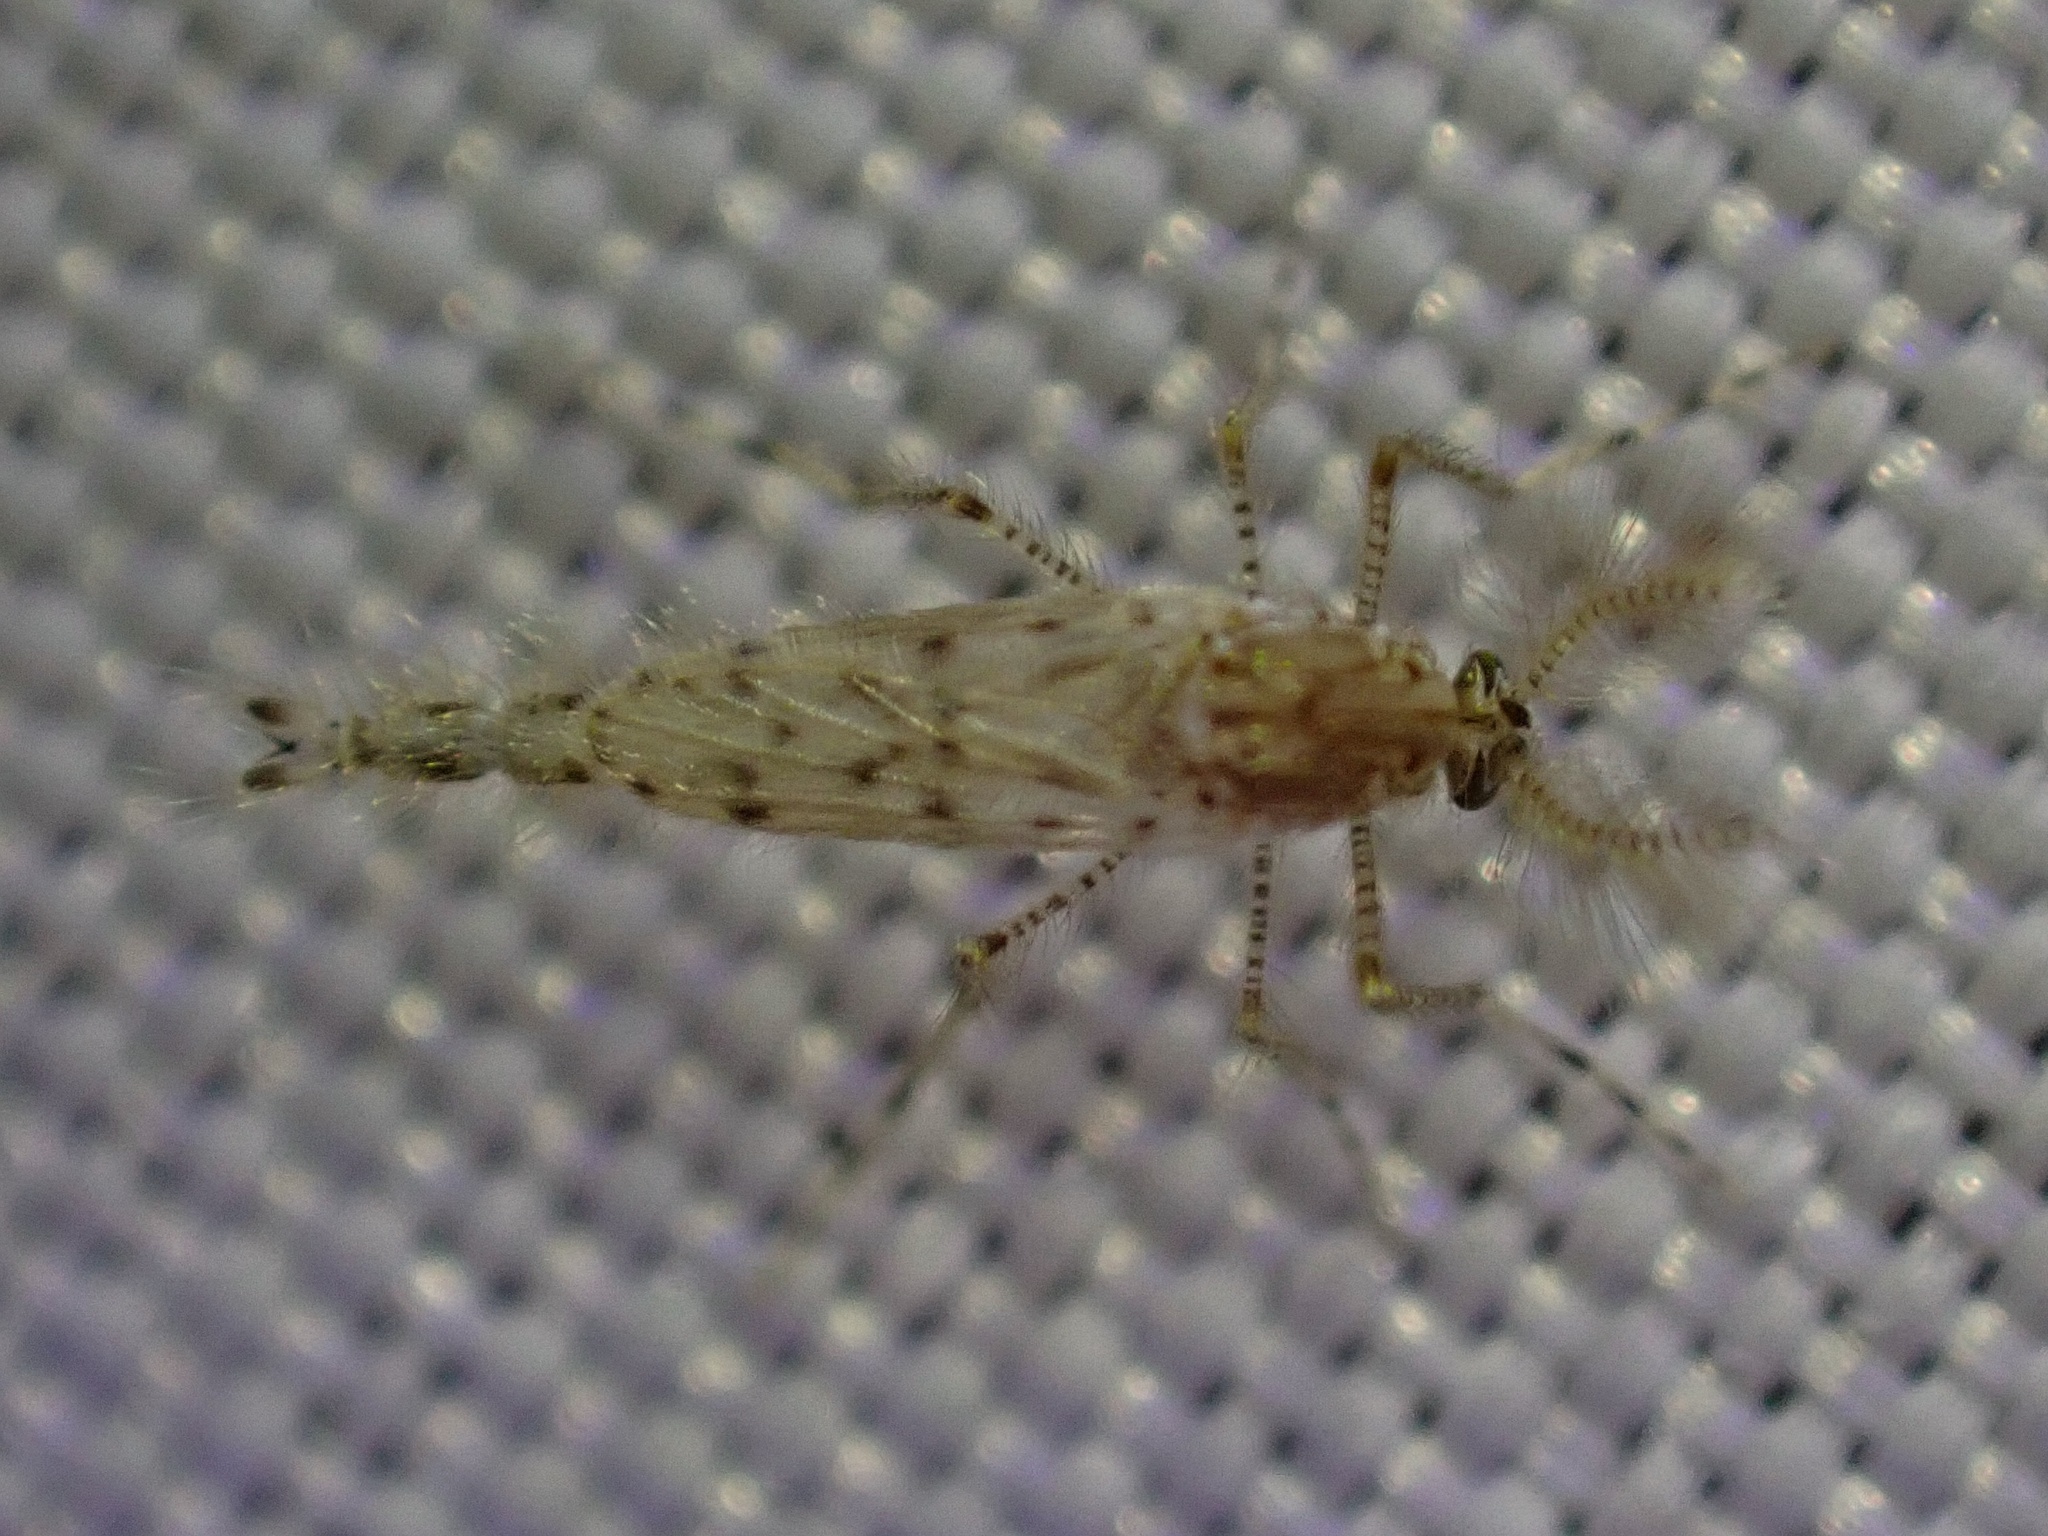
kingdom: Animalia
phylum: Arthropoda
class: Insecta
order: Diptera
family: Chaoboridae
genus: Chaoborus
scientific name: Chaoborus punctipennis
